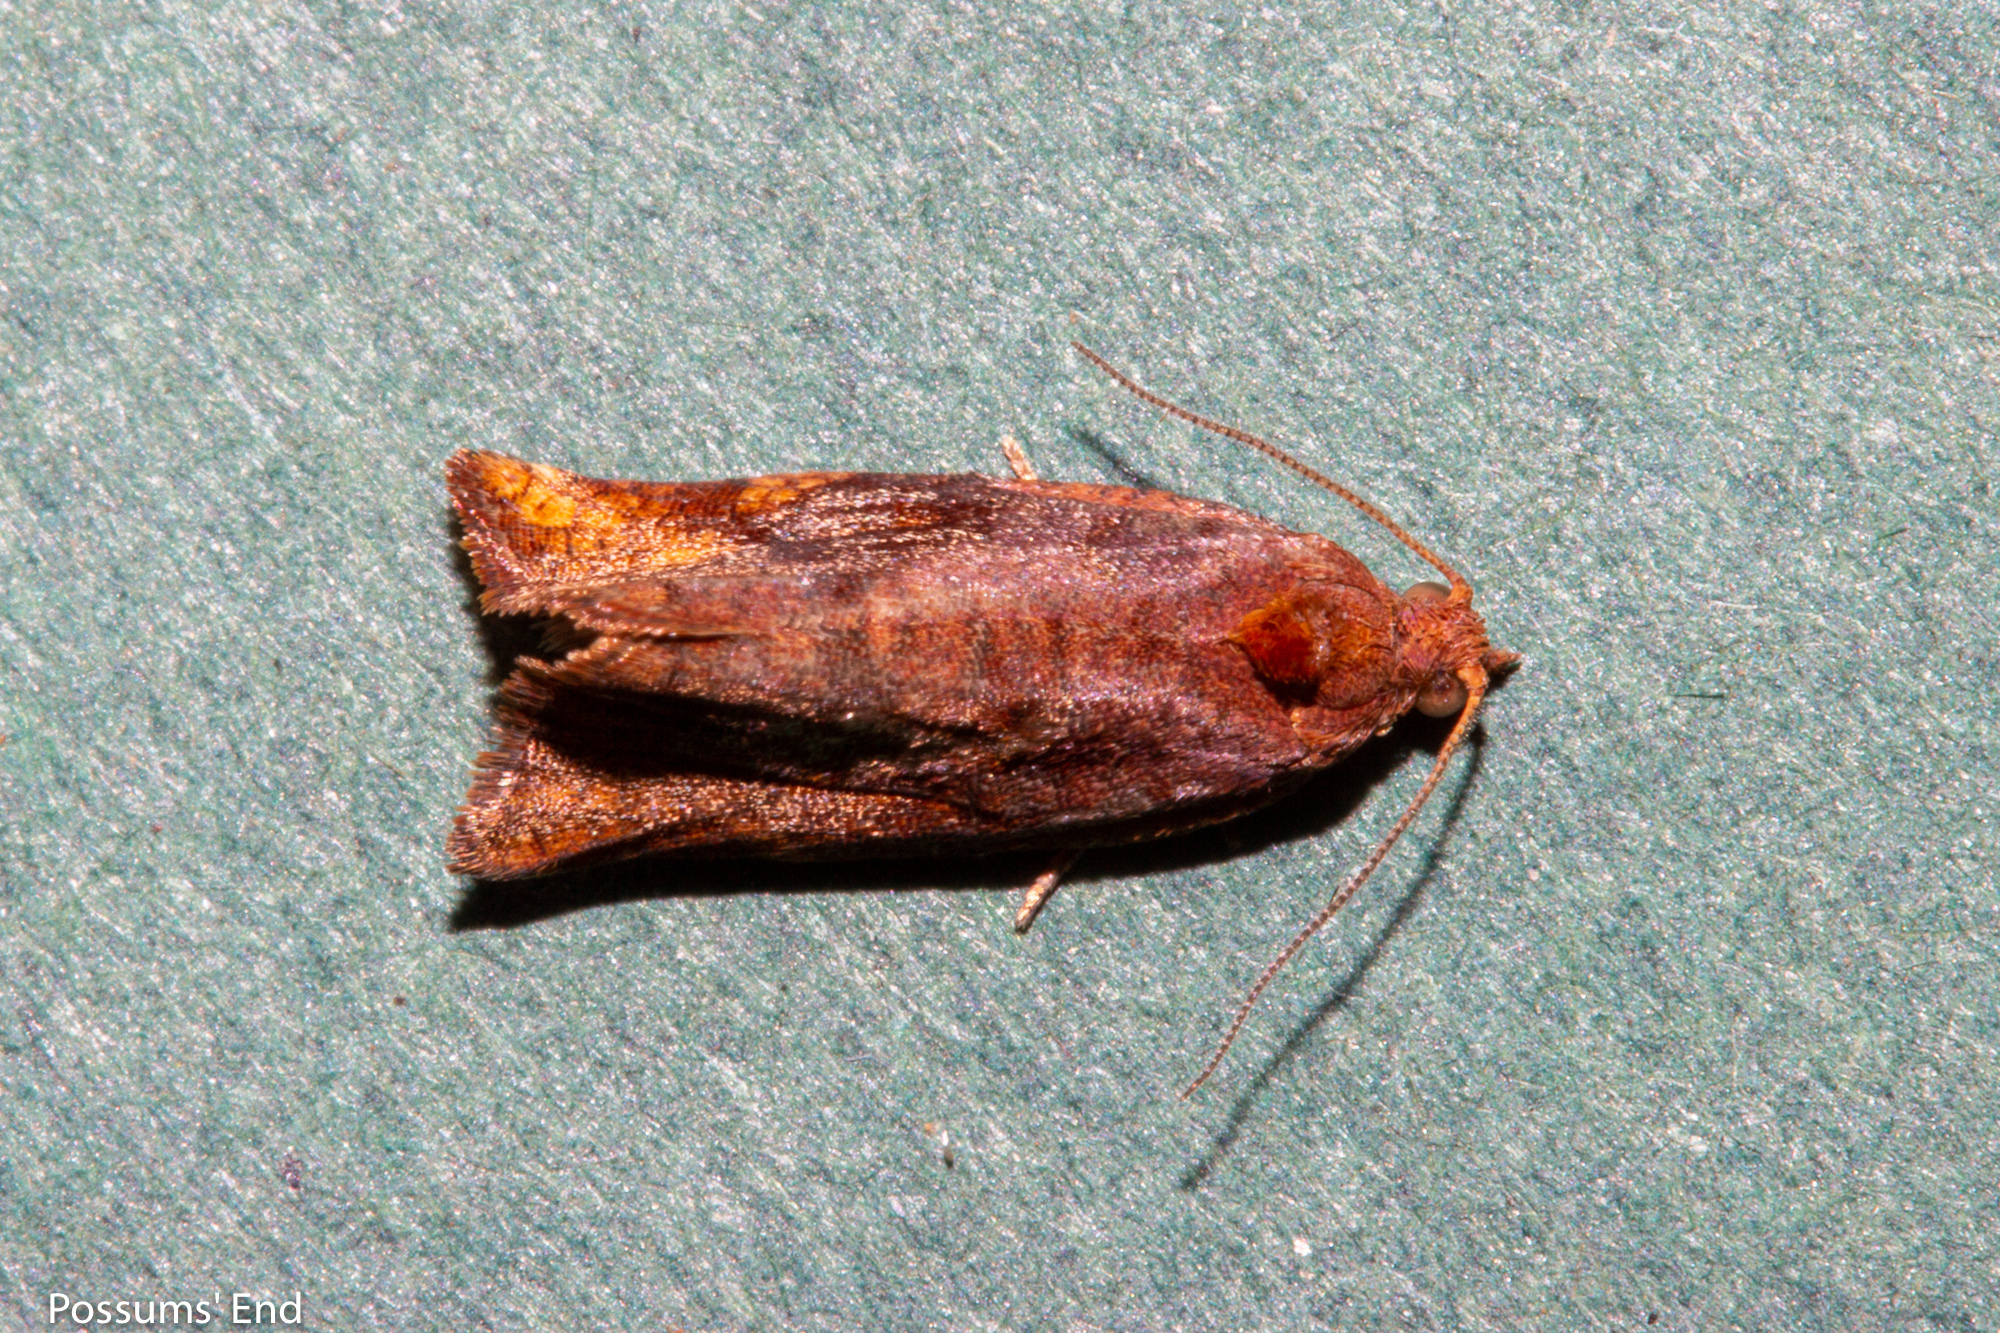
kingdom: Animalia
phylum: Arthropoda
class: Insecta
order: Lepidoptera
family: Tortricidae
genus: Pyrgotis
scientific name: Pyrgotis eudorana
